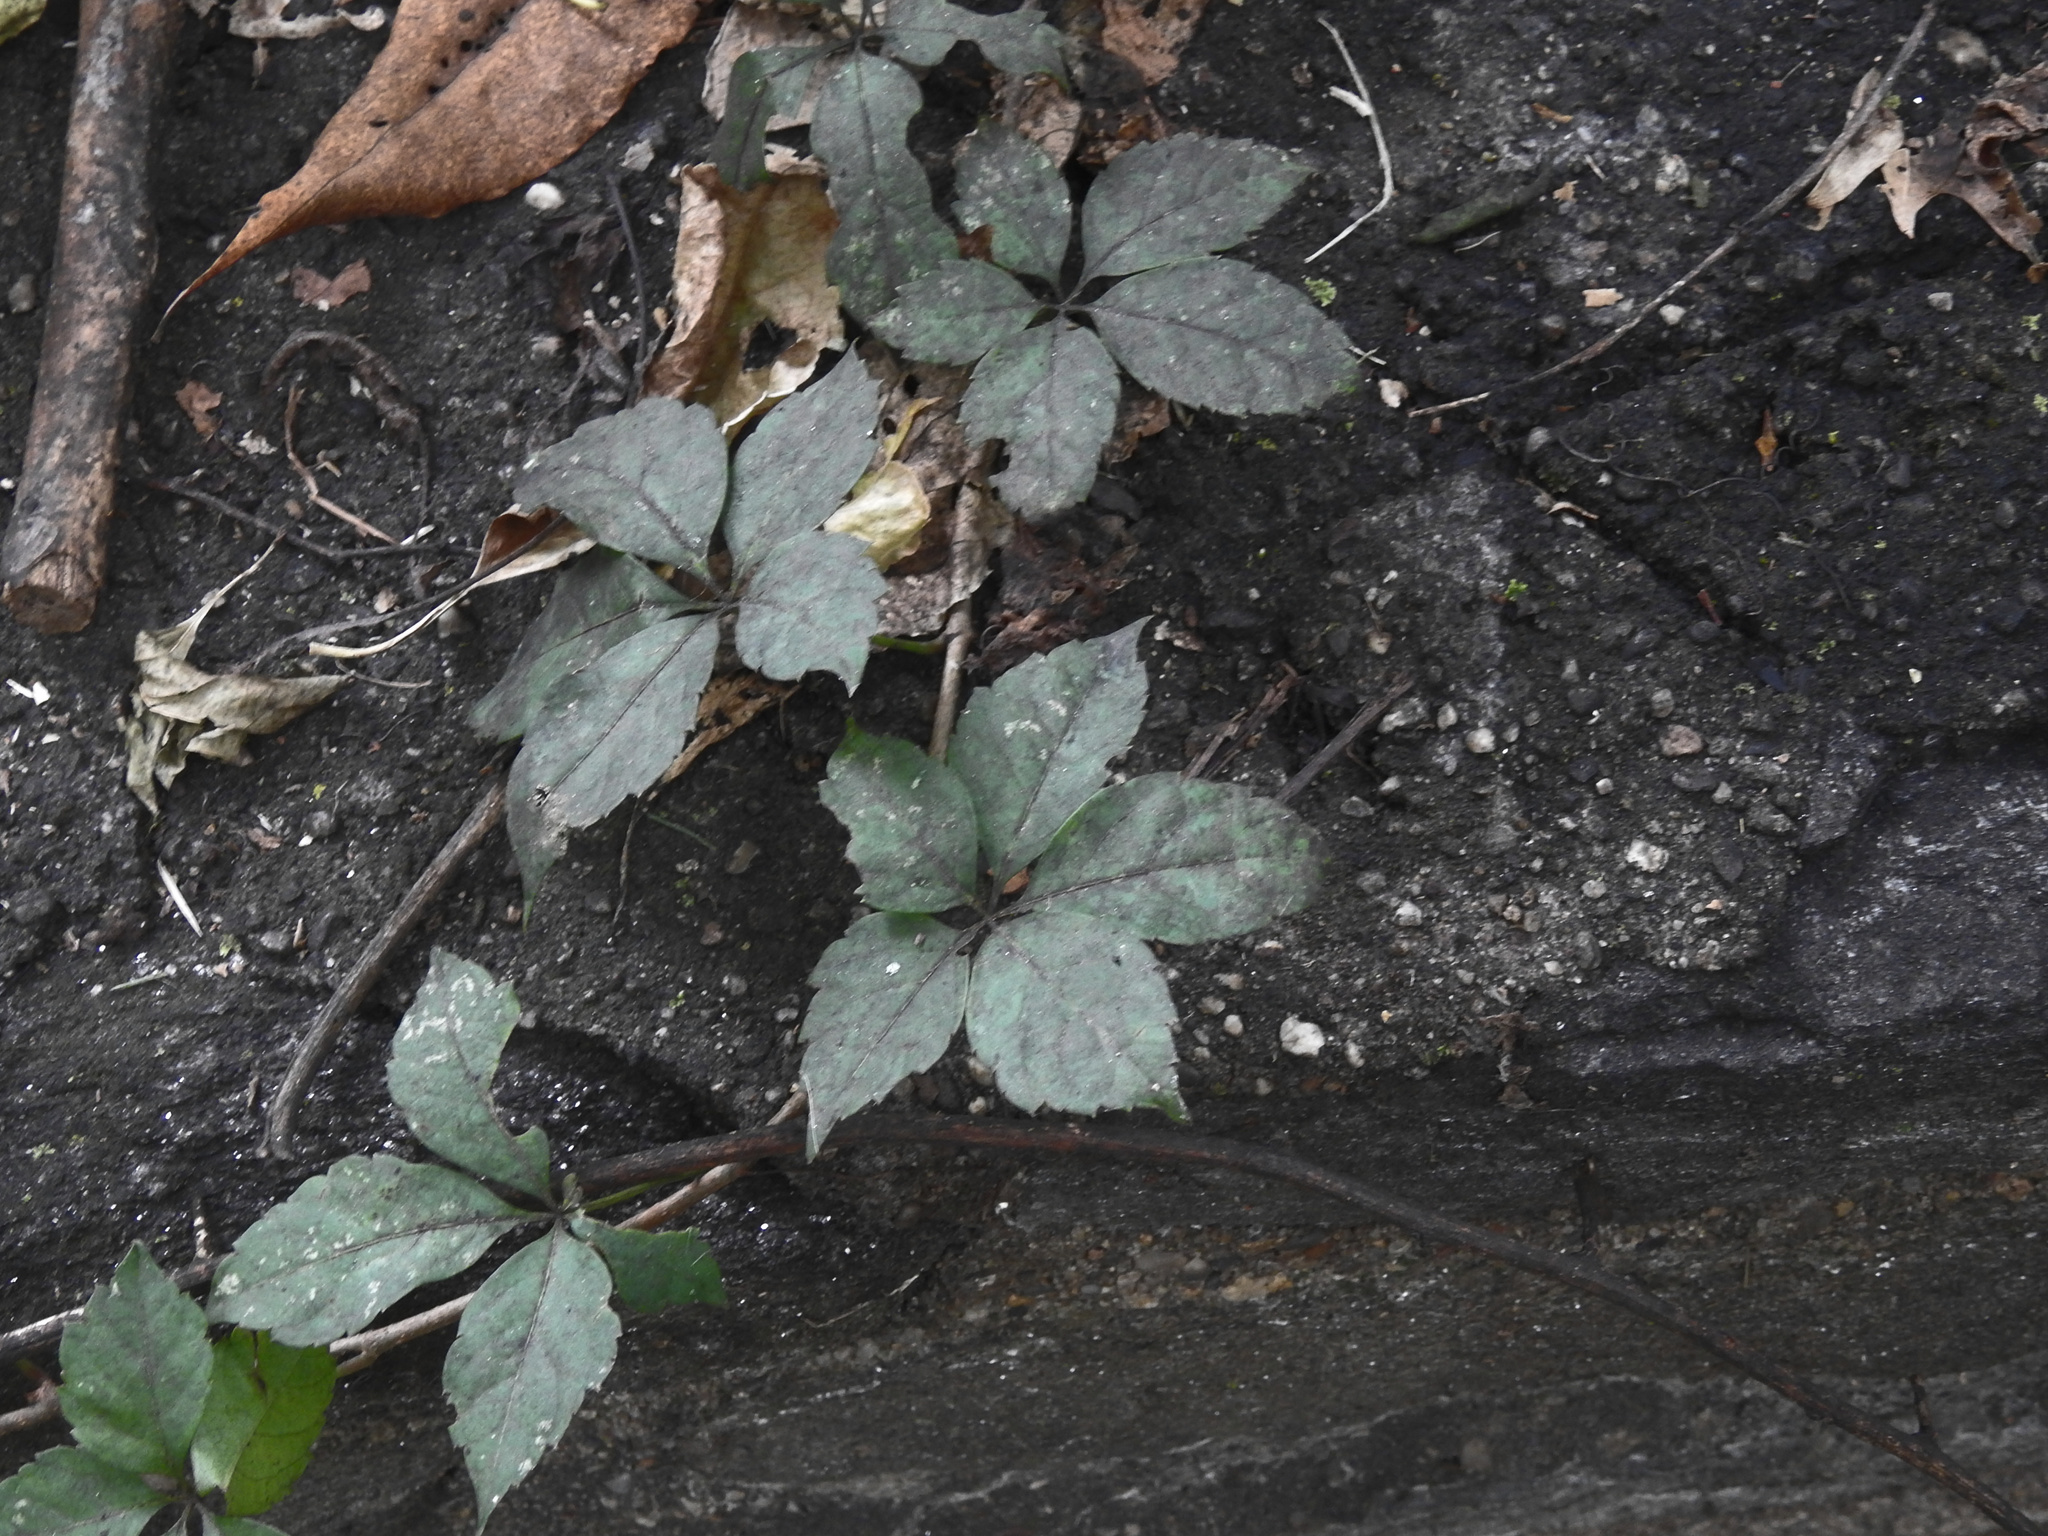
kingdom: Plantae
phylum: Tracheophyta
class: Magnoliopsida
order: Vitales
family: Vitaceae
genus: Parthenocissus
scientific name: Parthenocissus quinquefolia
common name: Virginia-creeper
